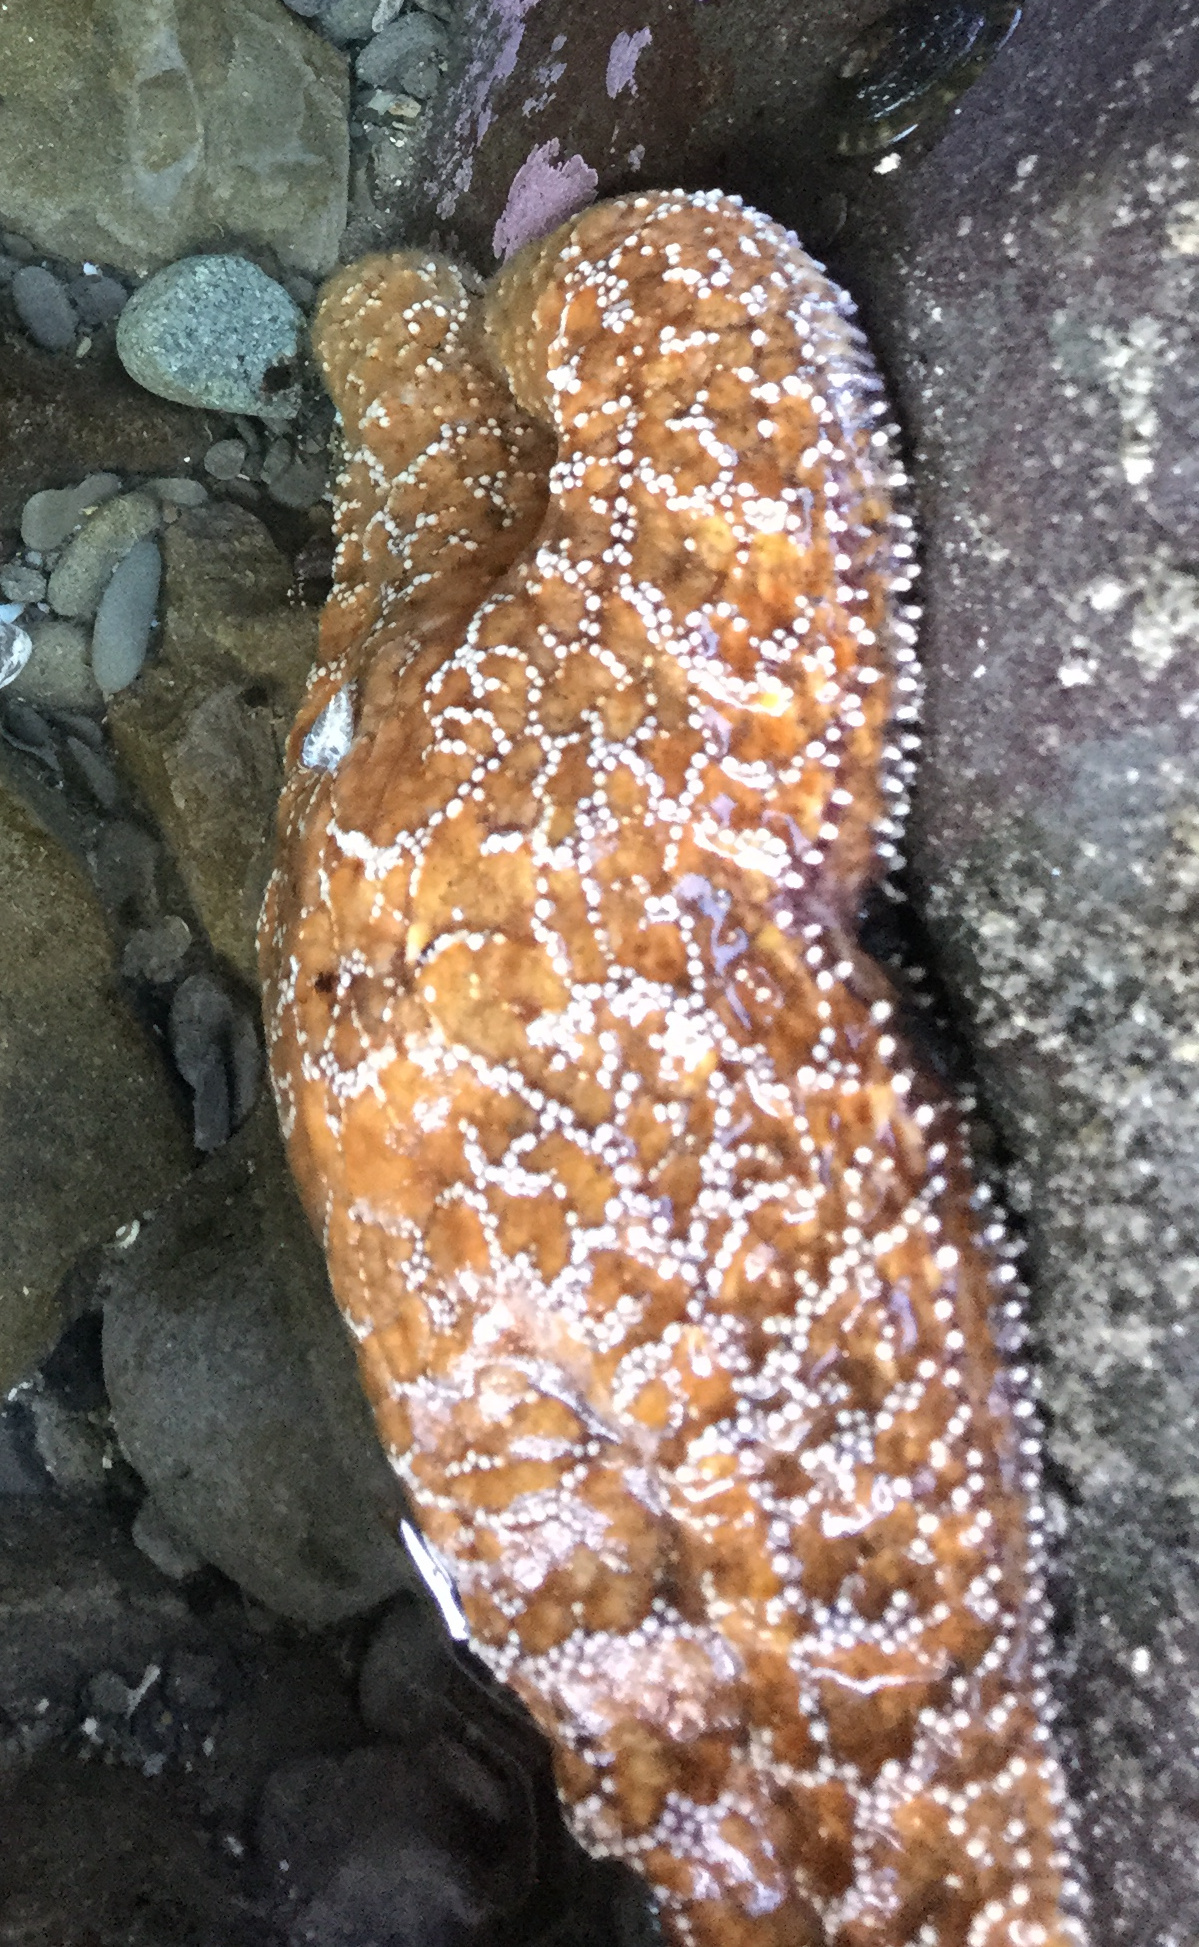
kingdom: Animalia
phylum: Echinodermata
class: Asteroidea
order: Forcipulatida
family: Asteriidae
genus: Pisaster
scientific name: Pisaster ochraceus
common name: Ochre stars
